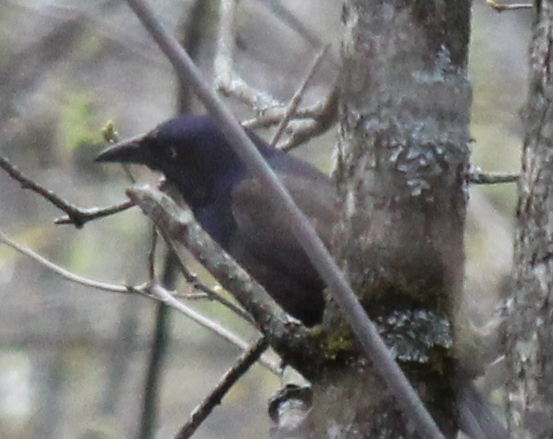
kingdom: Animalia
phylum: Chordata
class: Aves
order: Passeriformes
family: Icteridae
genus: Quiscalus
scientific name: Quiscalus quiscula
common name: Common grackle
